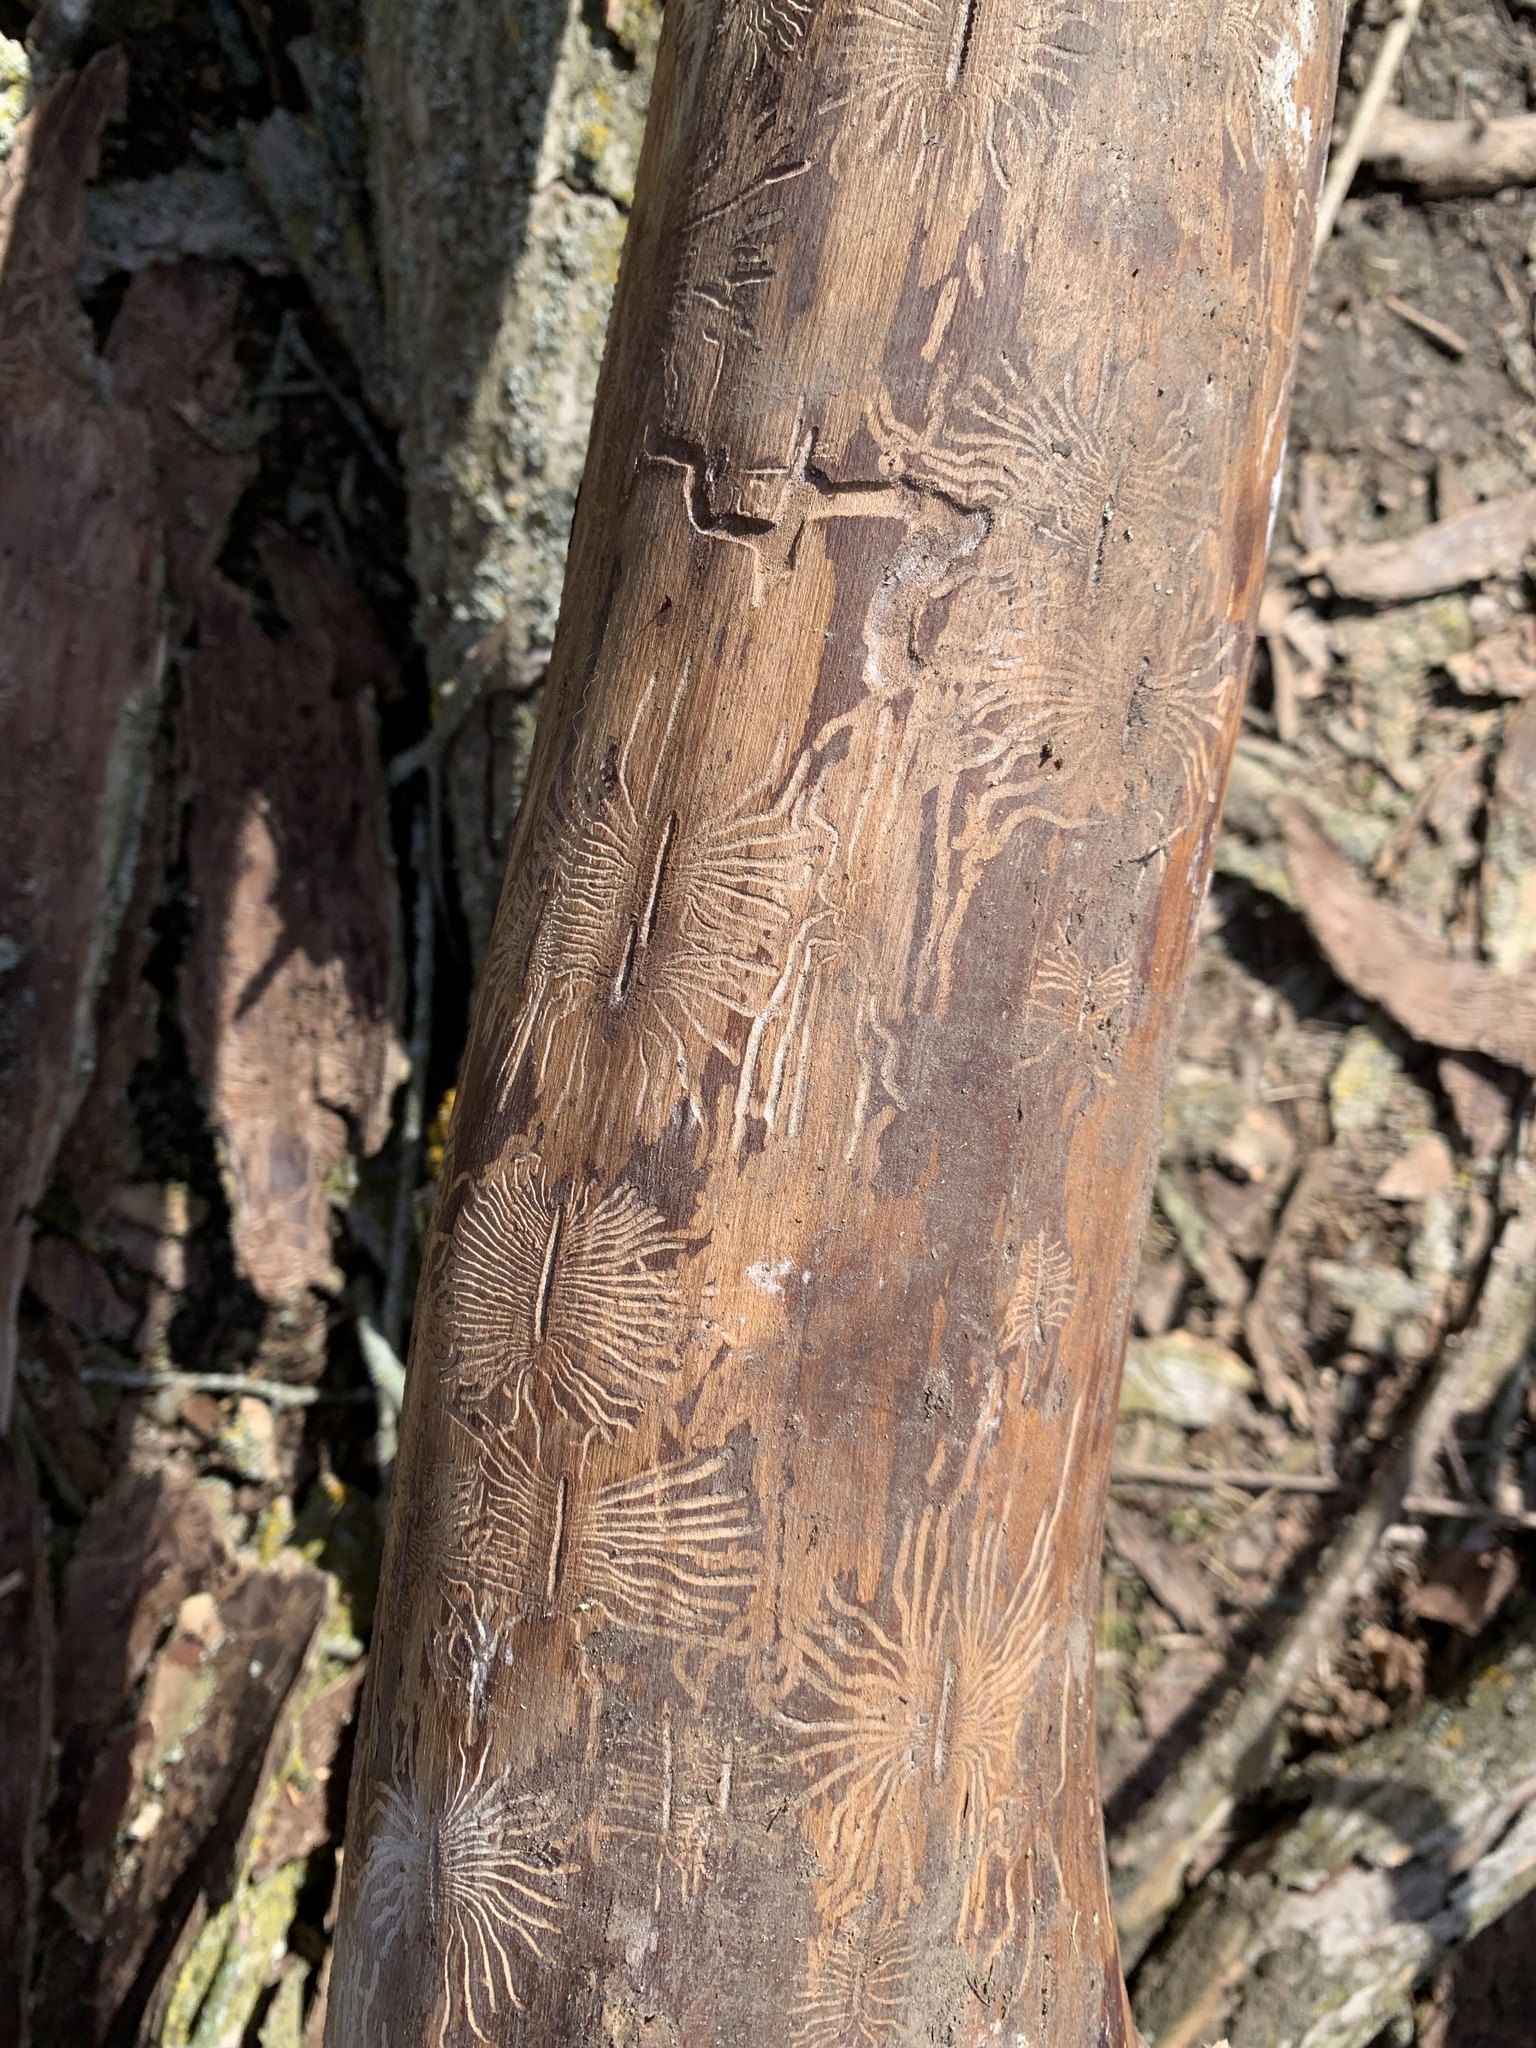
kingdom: Animalia
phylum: Arthropoda
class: Insecta
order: Coleoptera
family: Curculionidae
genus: Scolytus
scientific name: Scolytus multistriatus
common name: European elm bark beetle
